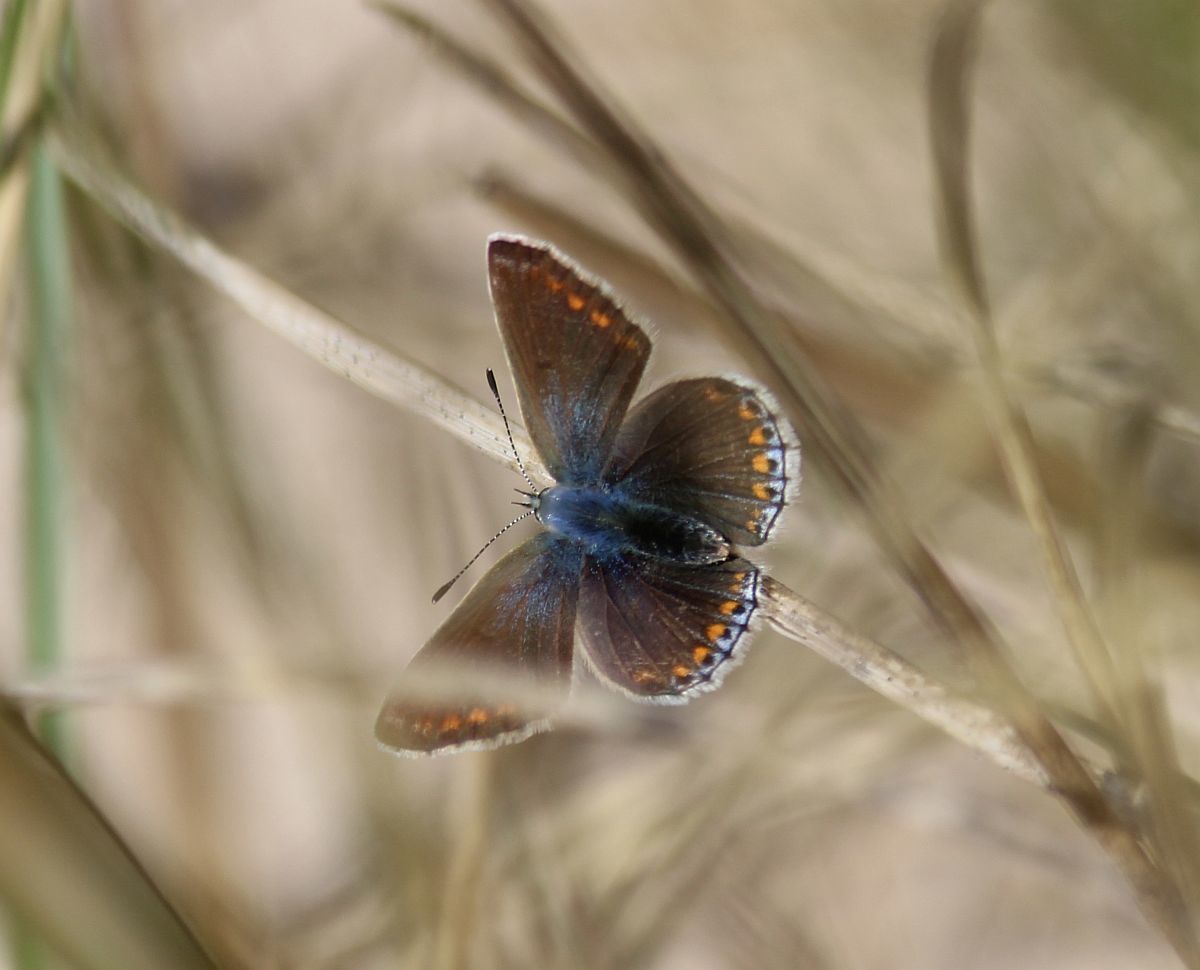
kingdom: Animalia
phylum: Arthropoda
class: Insecta
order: Lepidoptera
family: Lycaenidae
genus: Polyommatus
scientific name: Polyommatus icarus
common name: Common blue
